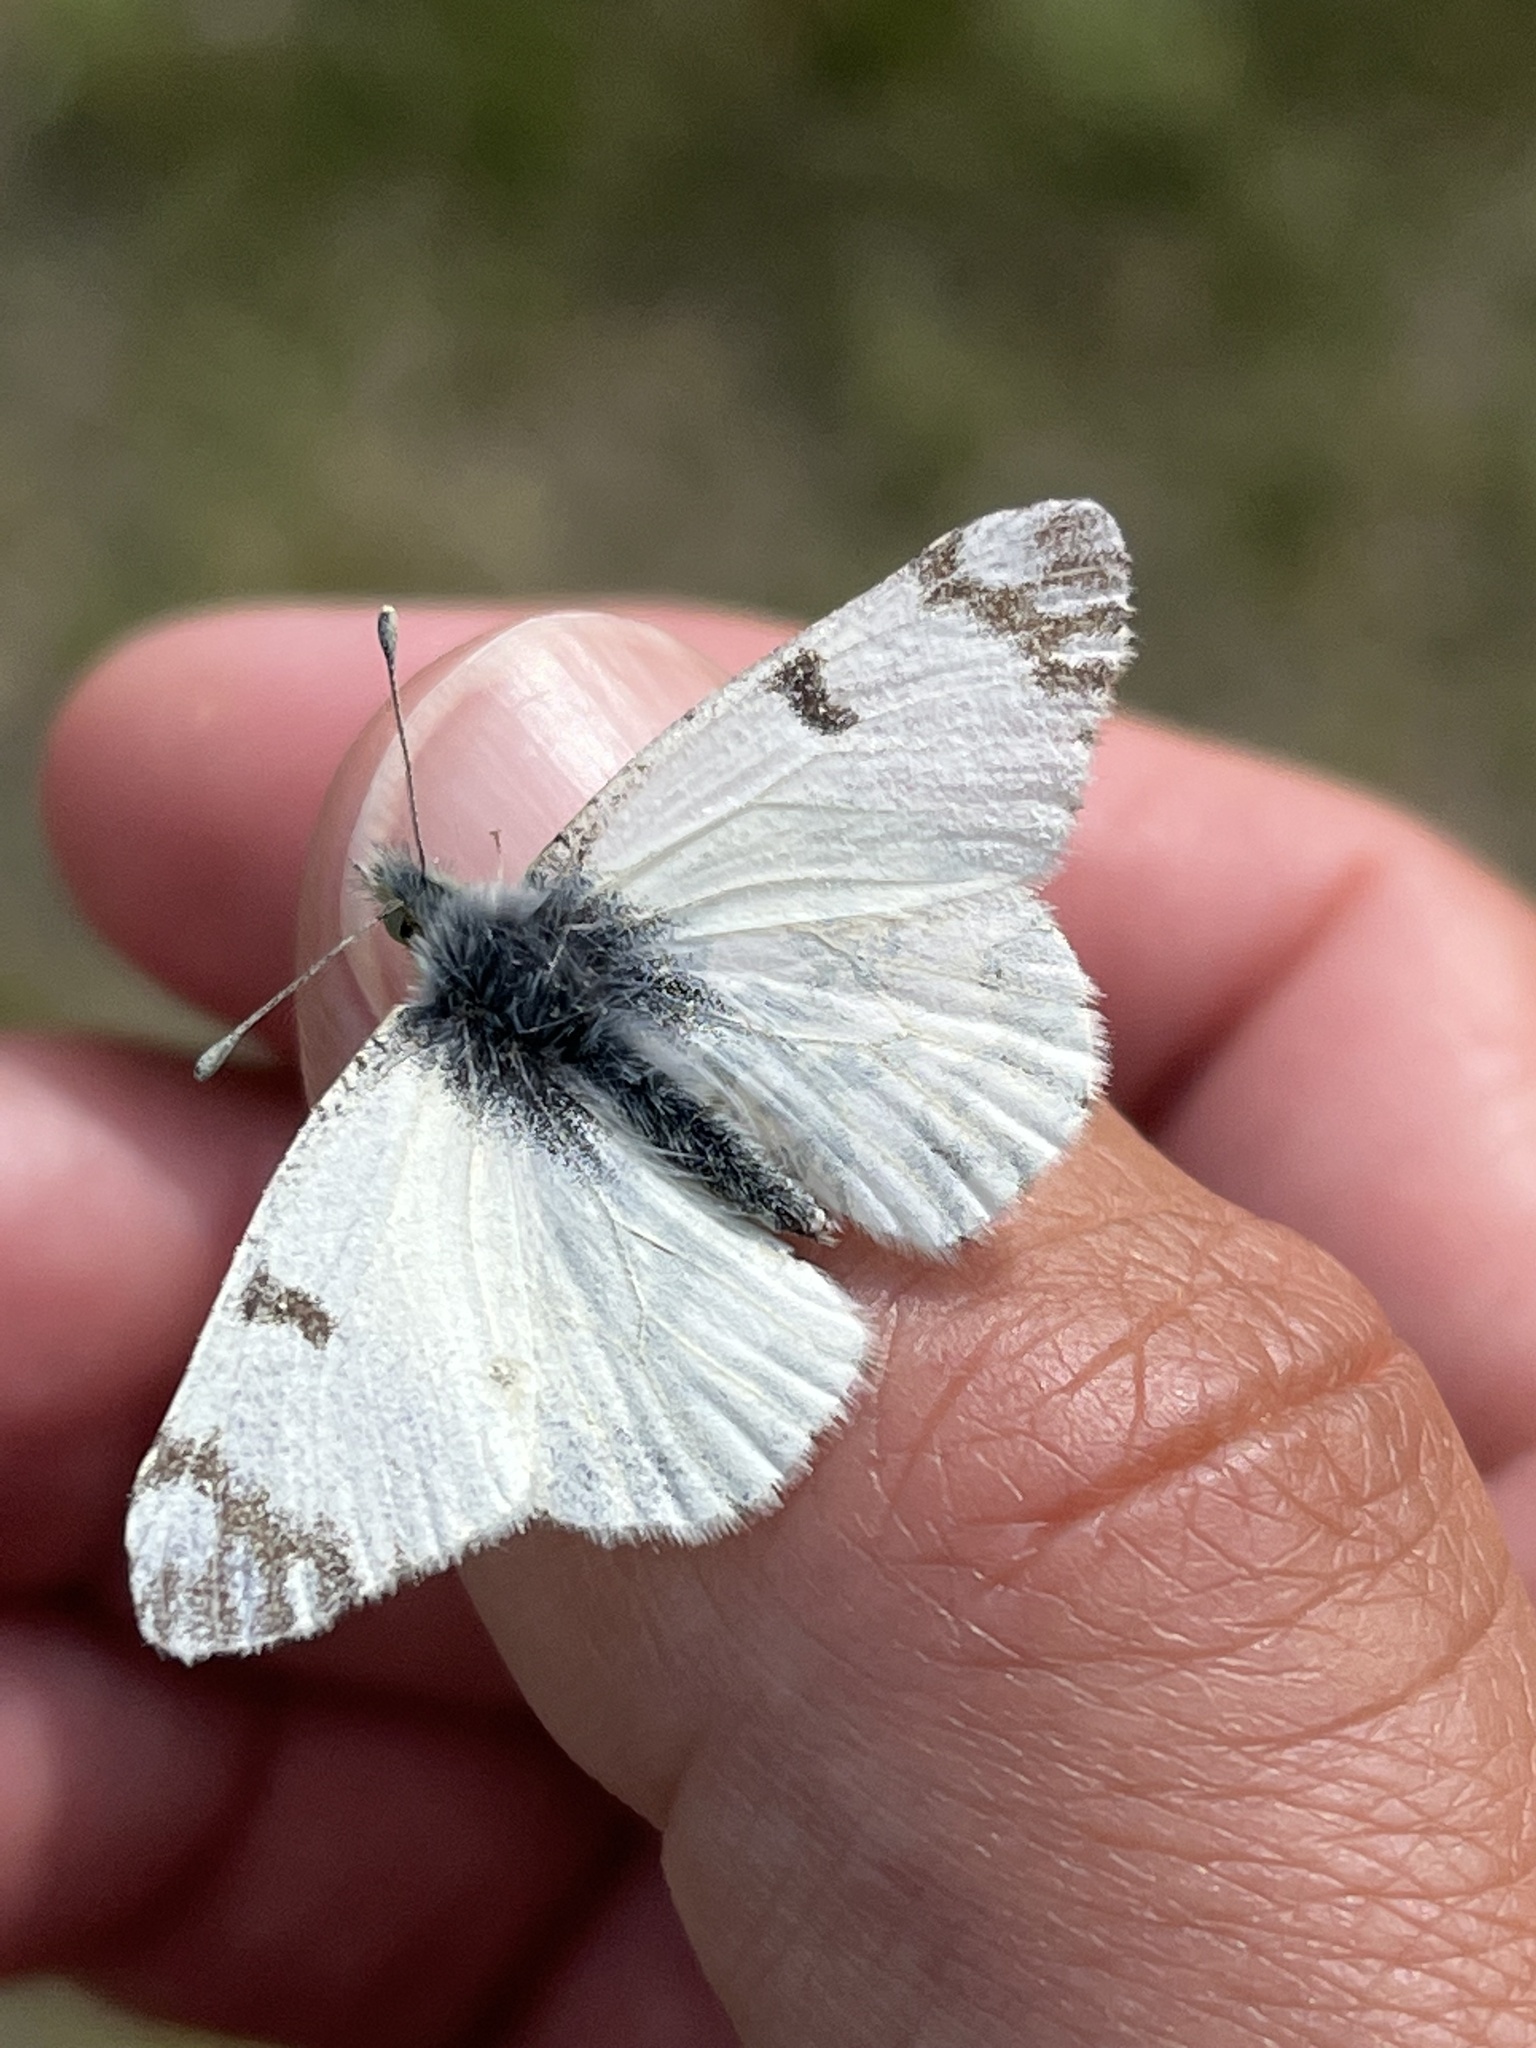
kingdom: Animalia
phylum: Arthropoda
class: Insecta
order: Lepidoptera
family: Pieridae
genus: Euchloe
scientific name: Euchloe ausonides
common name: Creamy marblewing
